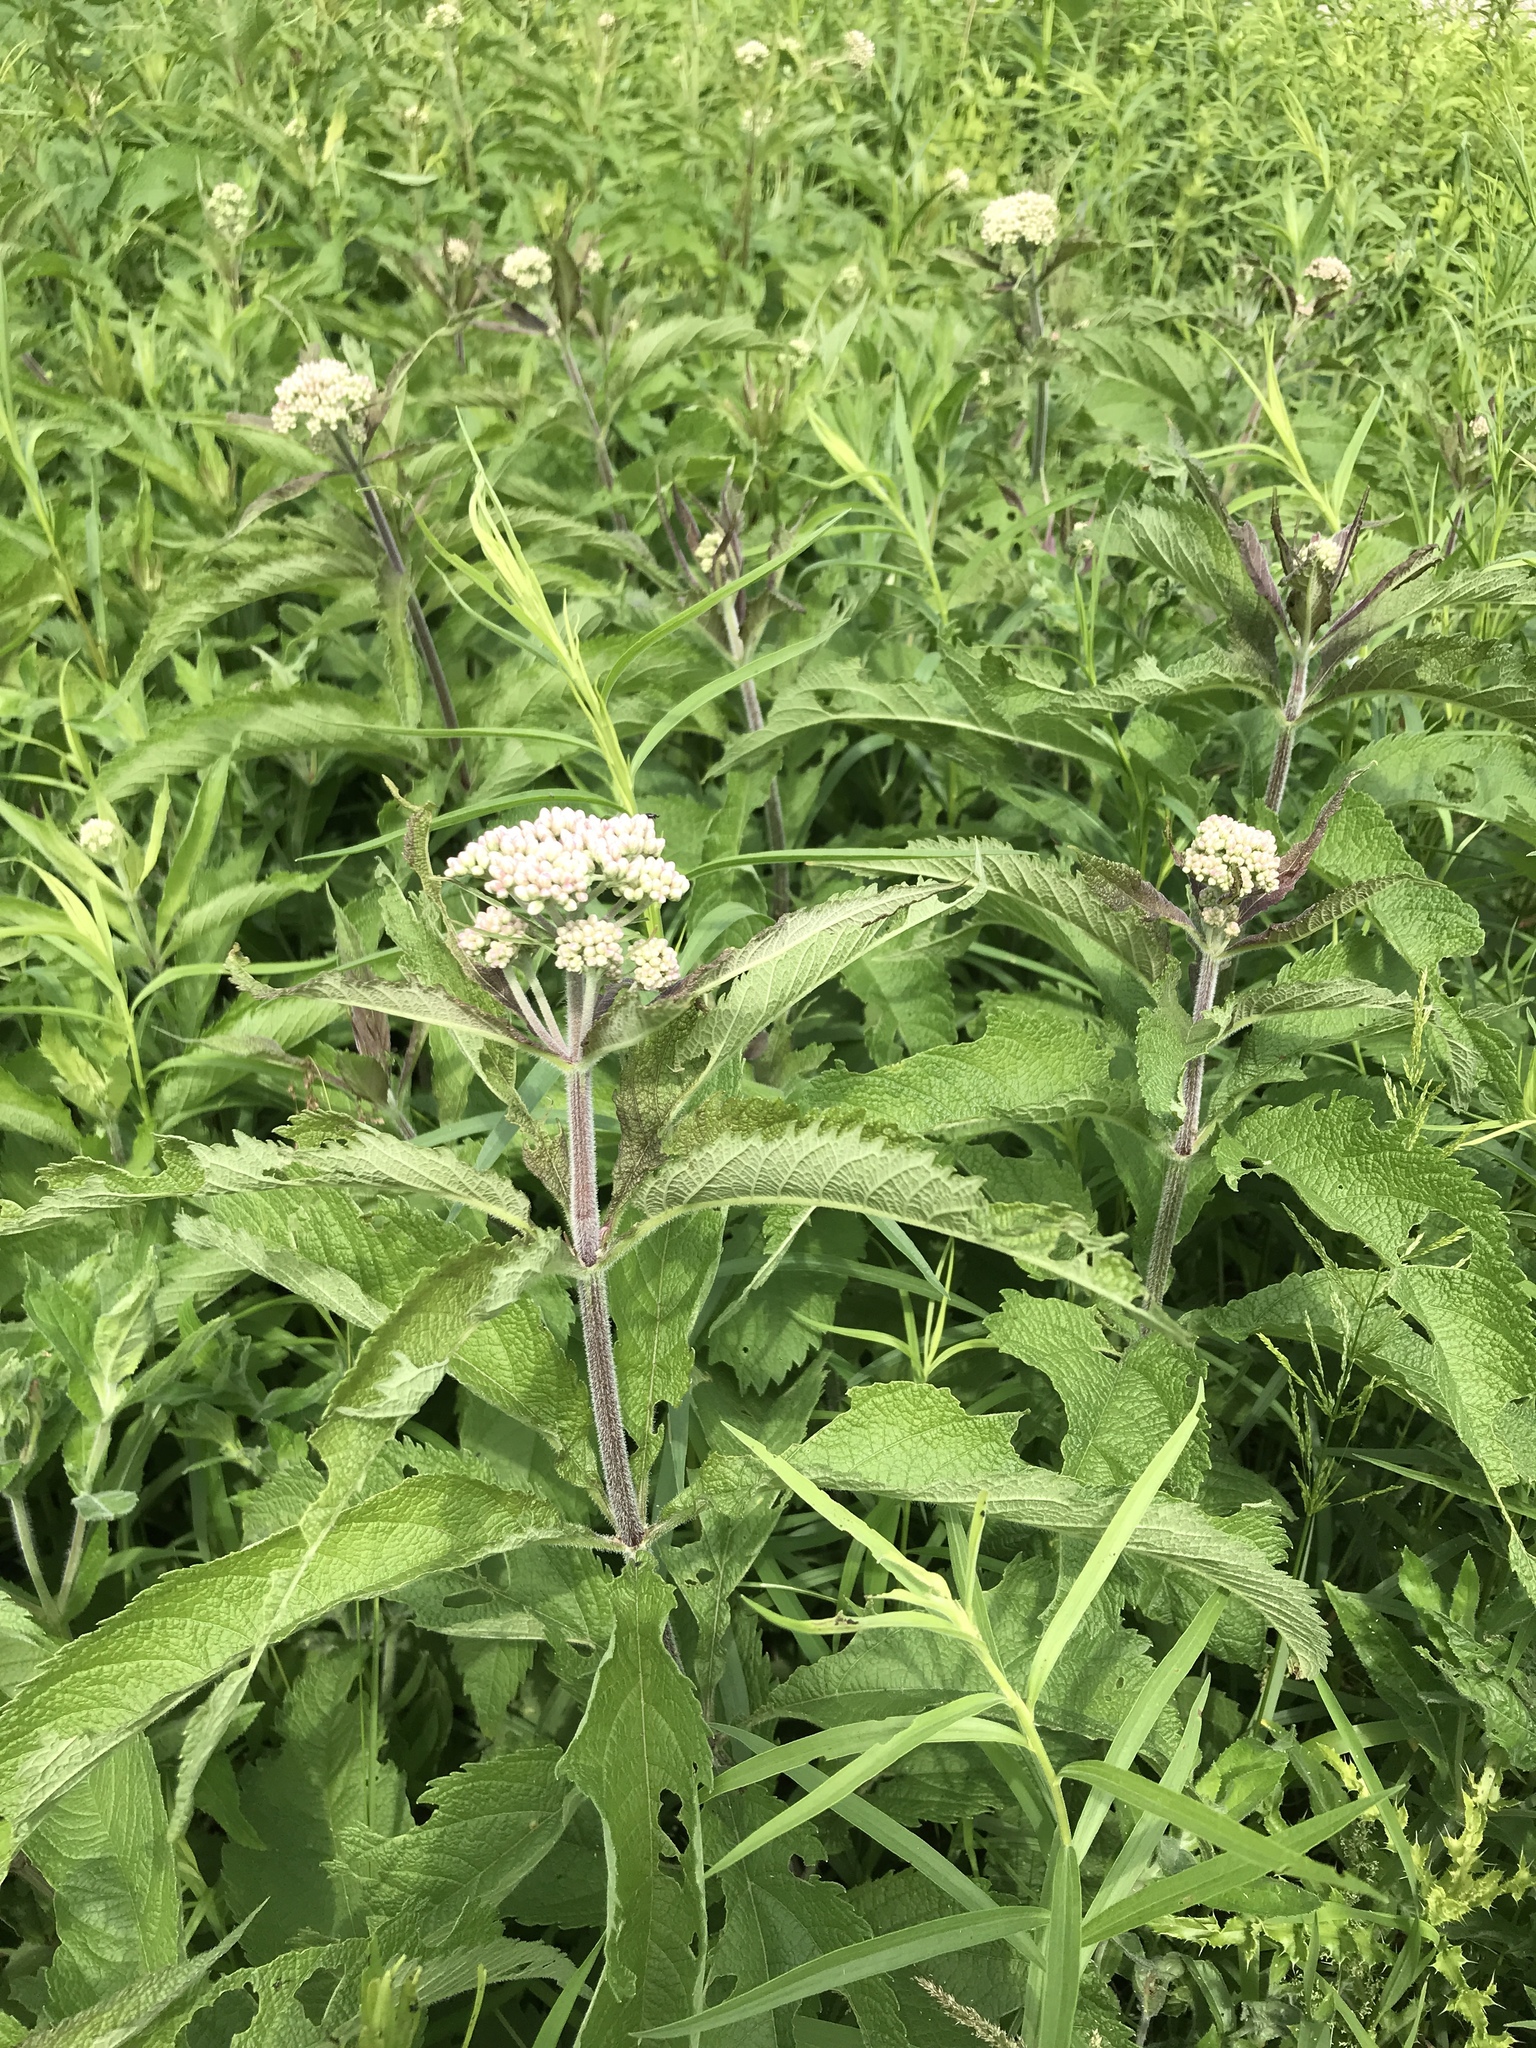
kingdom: Plantae
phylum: Tracheophyta
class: Magnoliopsida
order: Asterales
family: Asteraceae
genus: Eutrochium
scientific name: Eutrochium maculatum
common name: Spotted joe pye weed
